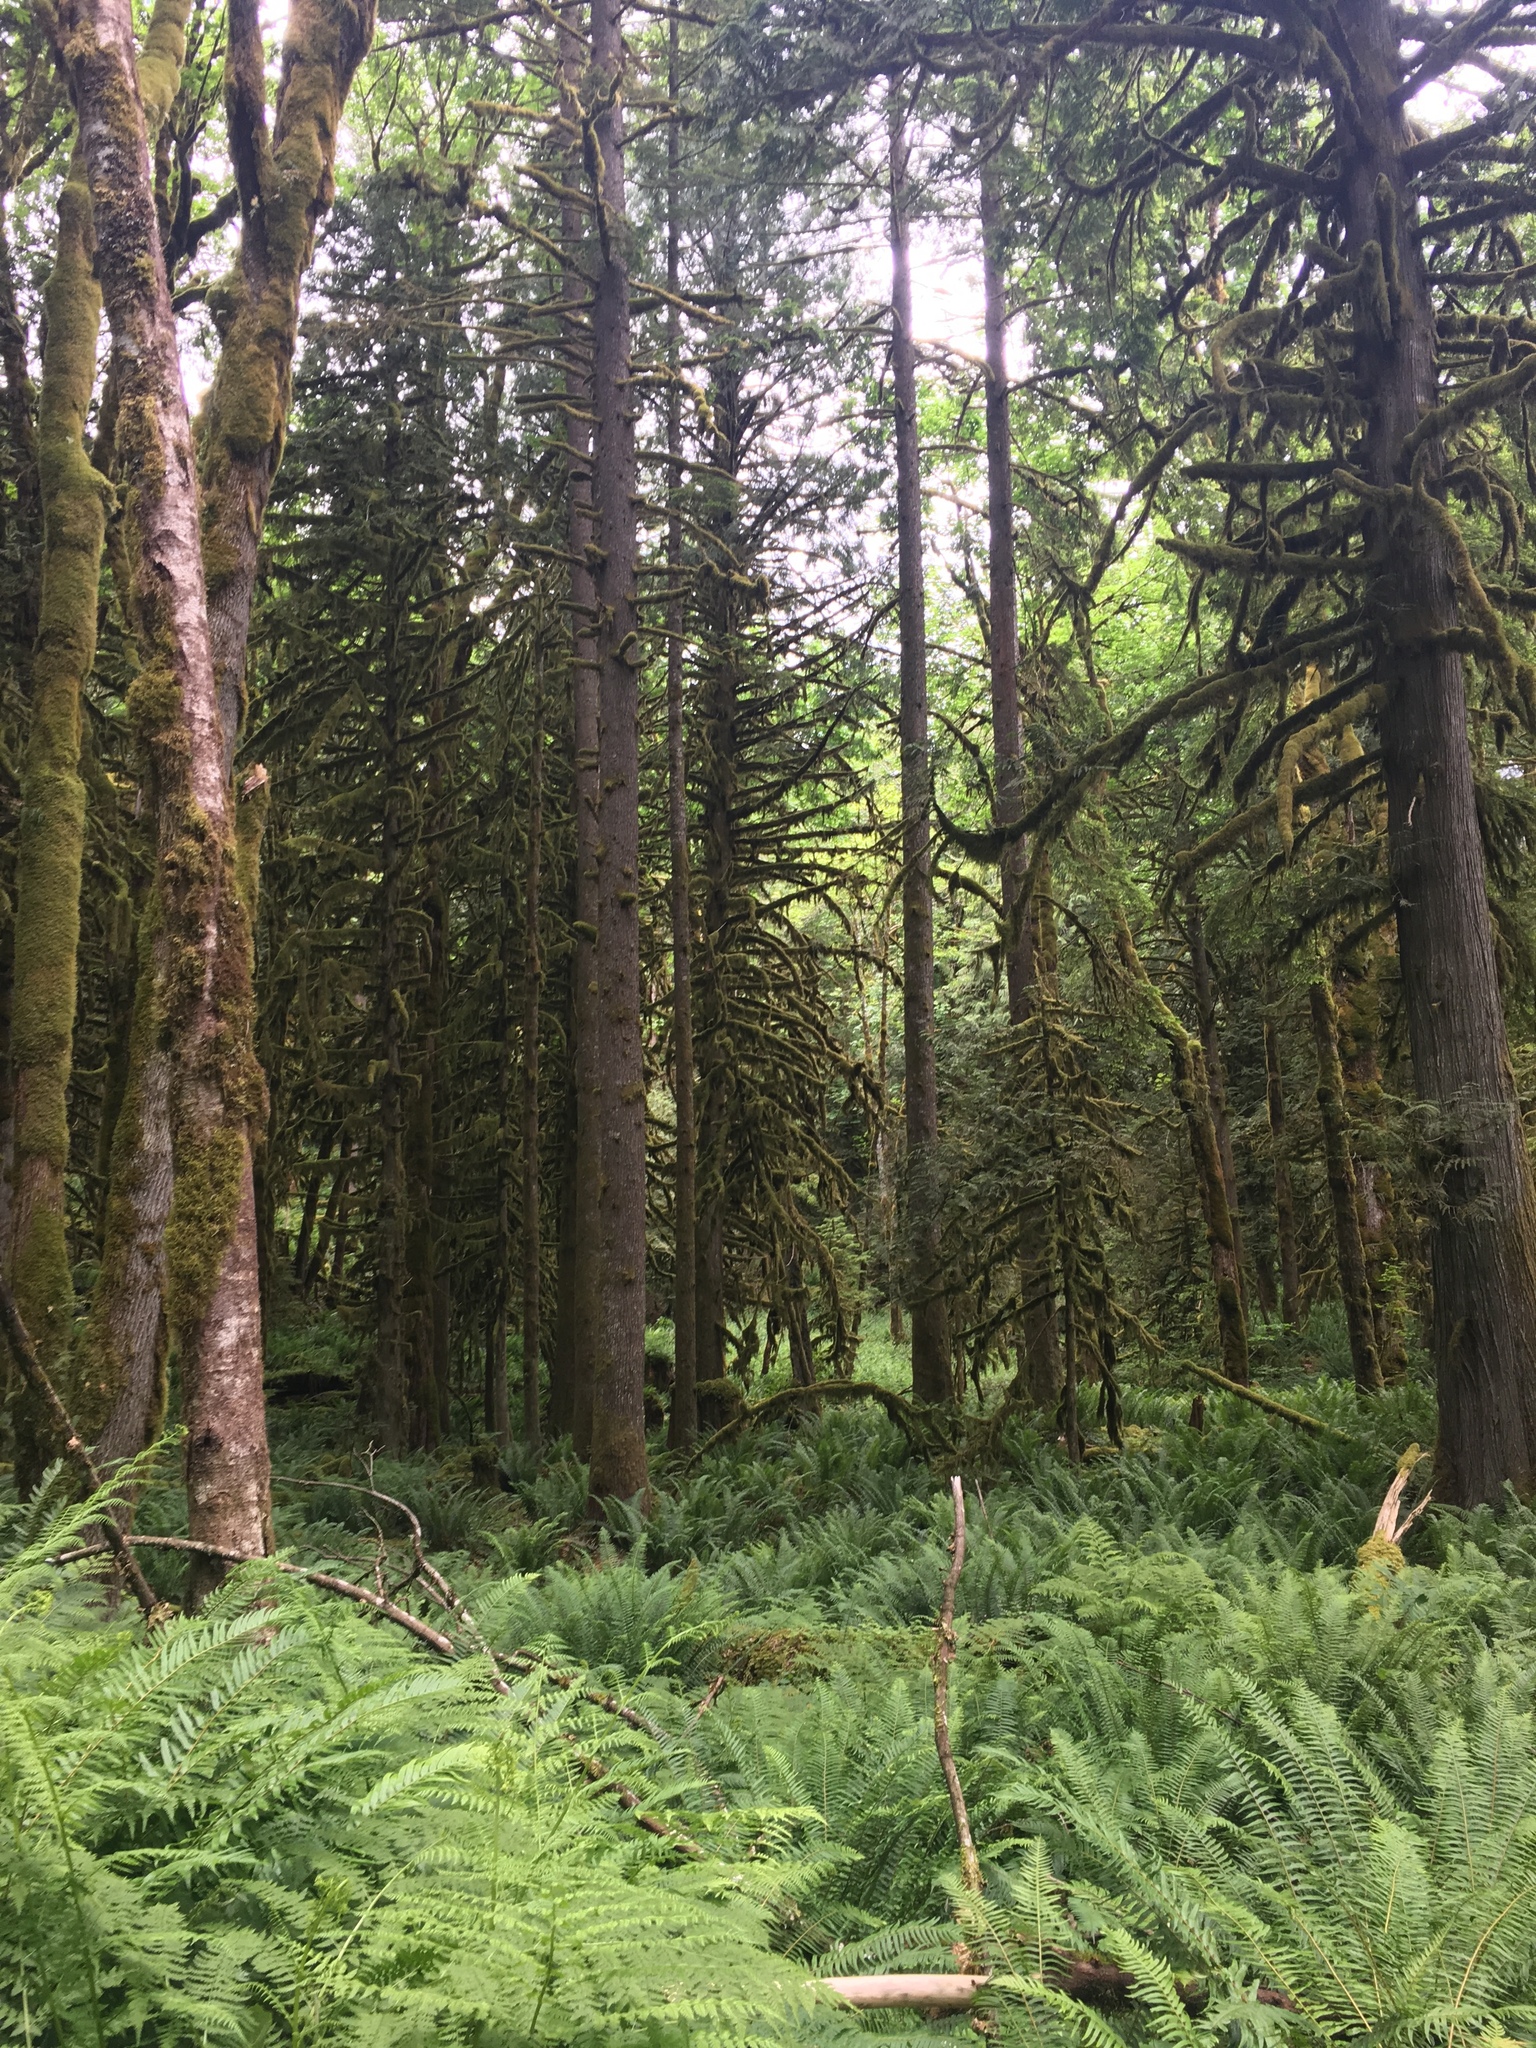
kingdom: Plantae
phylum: Tracheophyta
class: Polypodiopsida
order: Polypodiales
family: Dryopteridaceae
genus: Polystichum
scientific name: Polystichum munitum
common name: Western sword-fern
